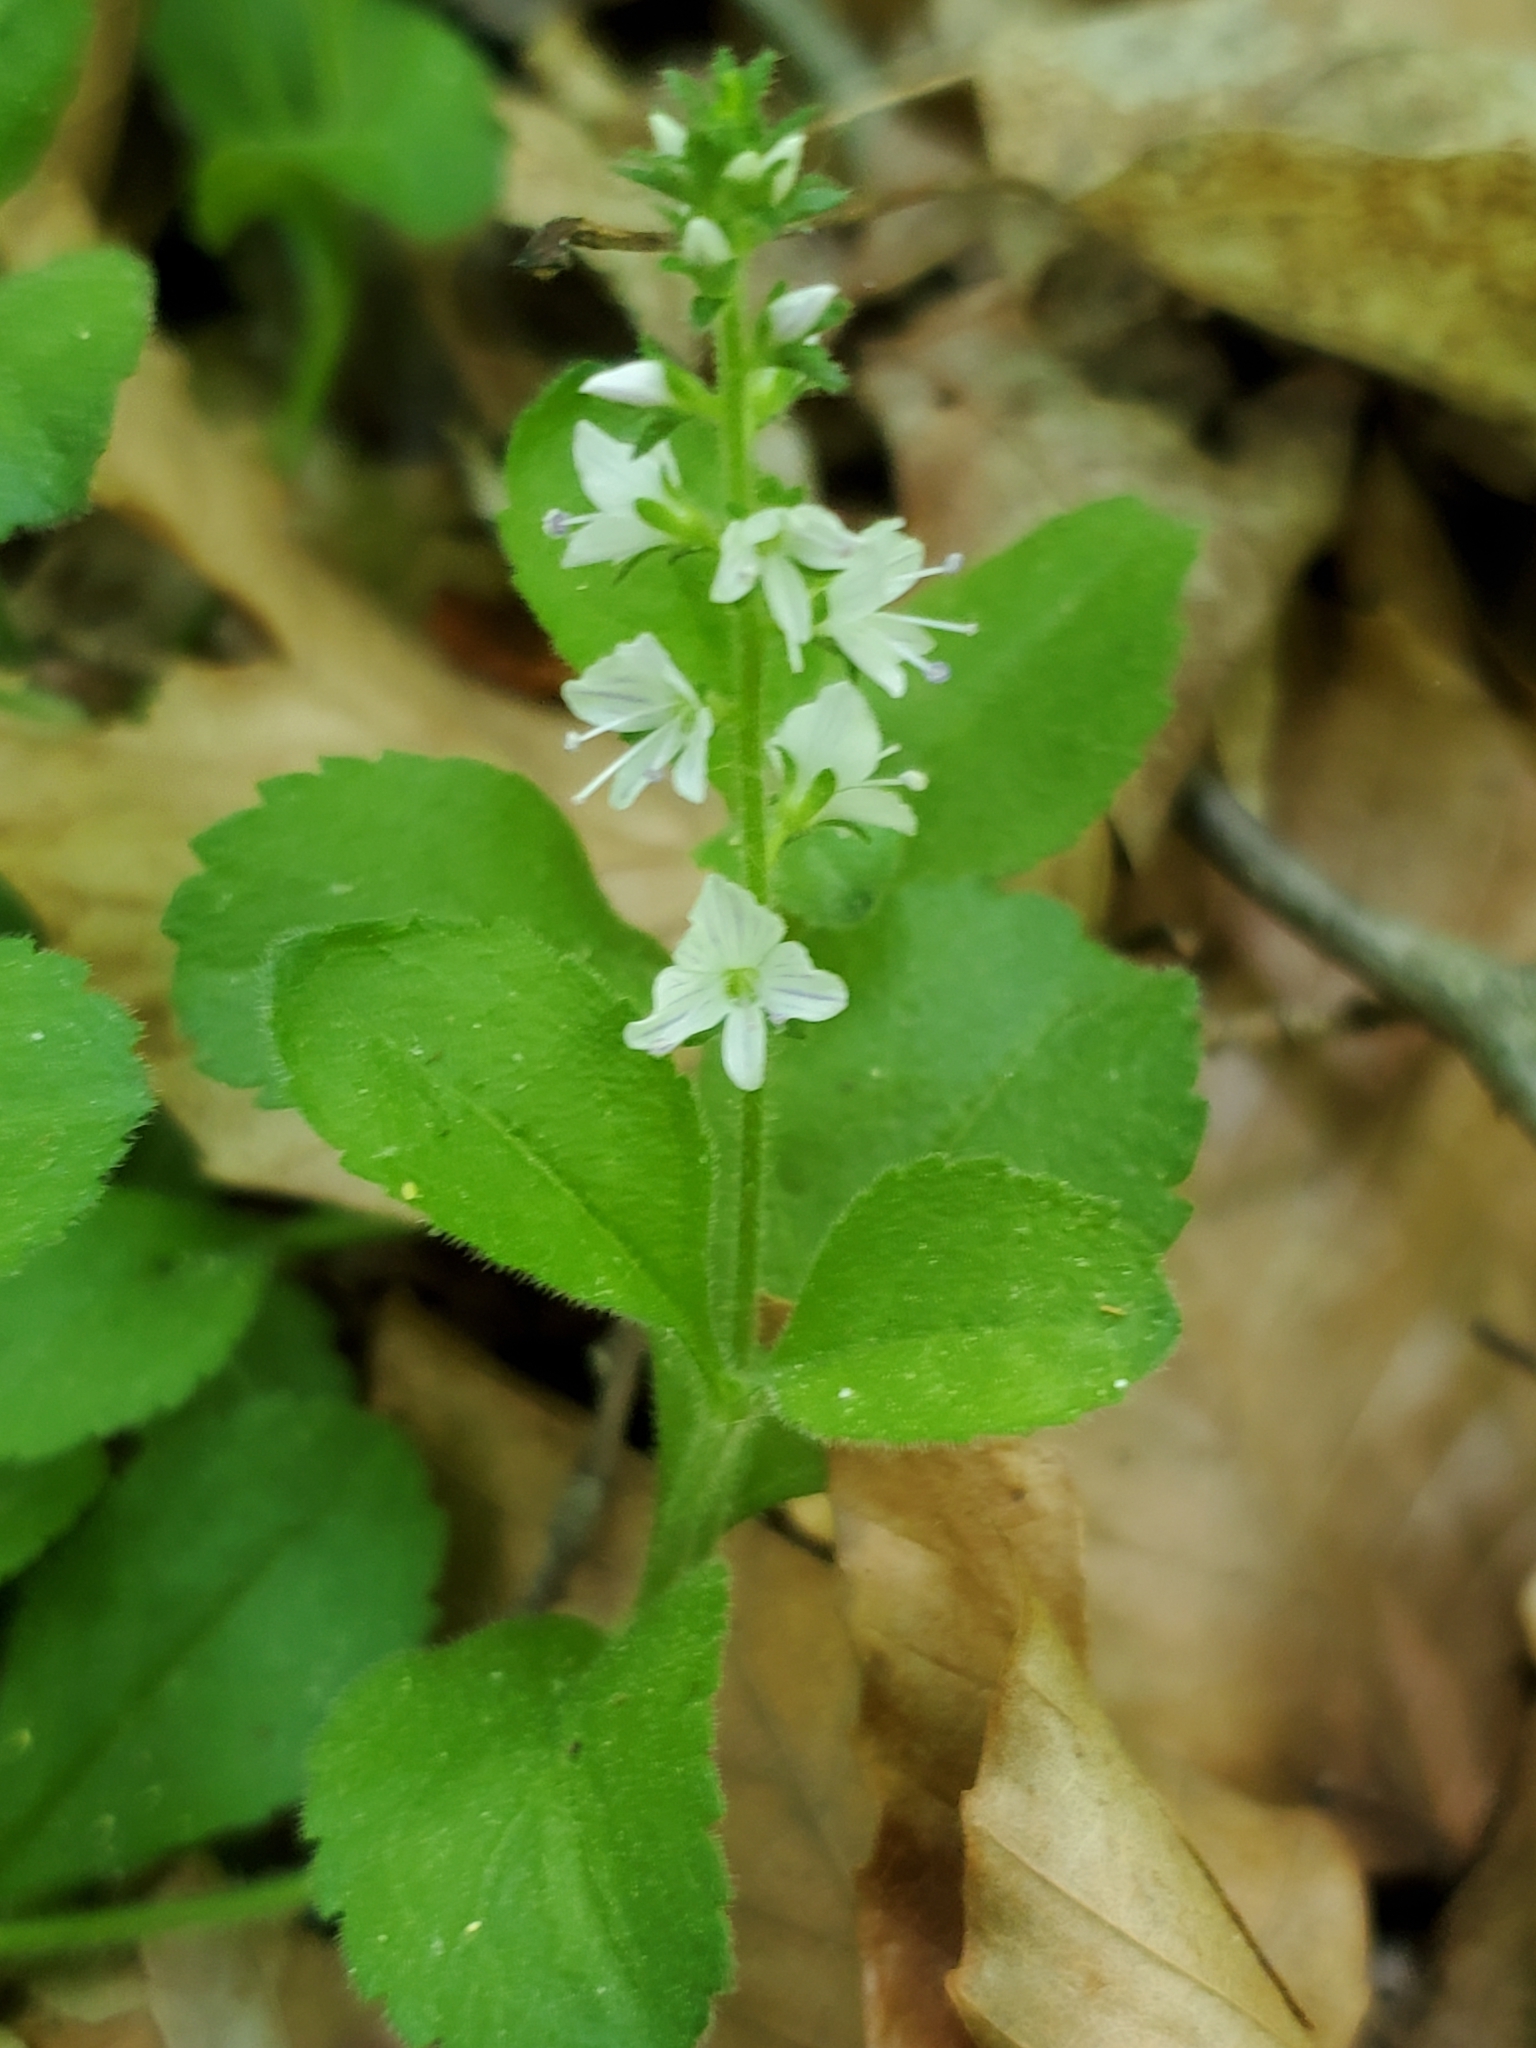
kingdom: Plantae
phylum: Tracheophyta
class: Magnoliopsida
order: Lamiales
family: Plantaginaceae
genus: Veronica
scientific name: Veronica officinalis
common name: Common speedwell
